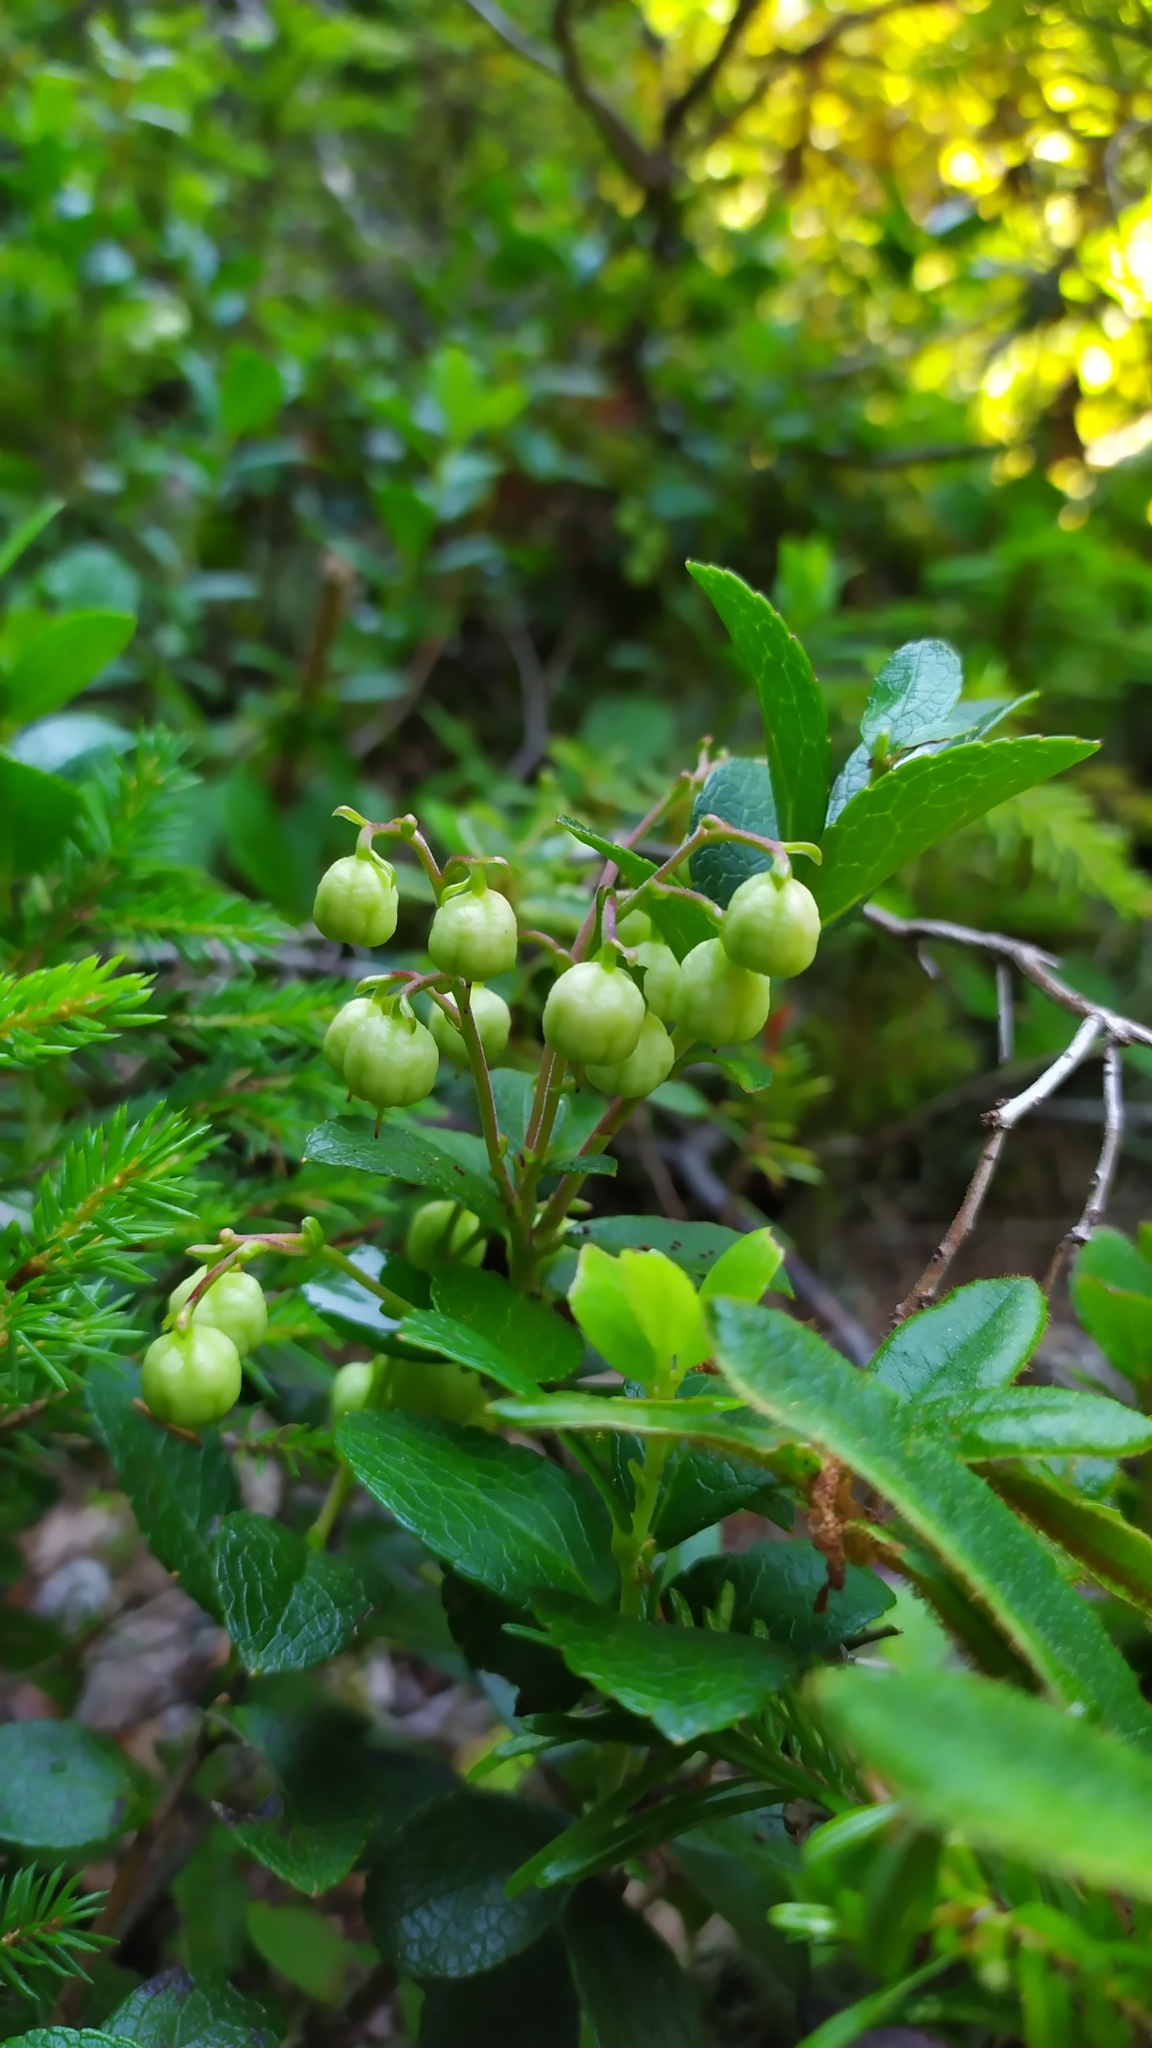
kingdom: Plantae
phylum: Tracheophyta
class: Magnoliopsida
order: Ericales
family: Ericaceae
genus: Gaultheria
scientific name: Gaultheria pyroloides
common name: Japanese wintergreen
